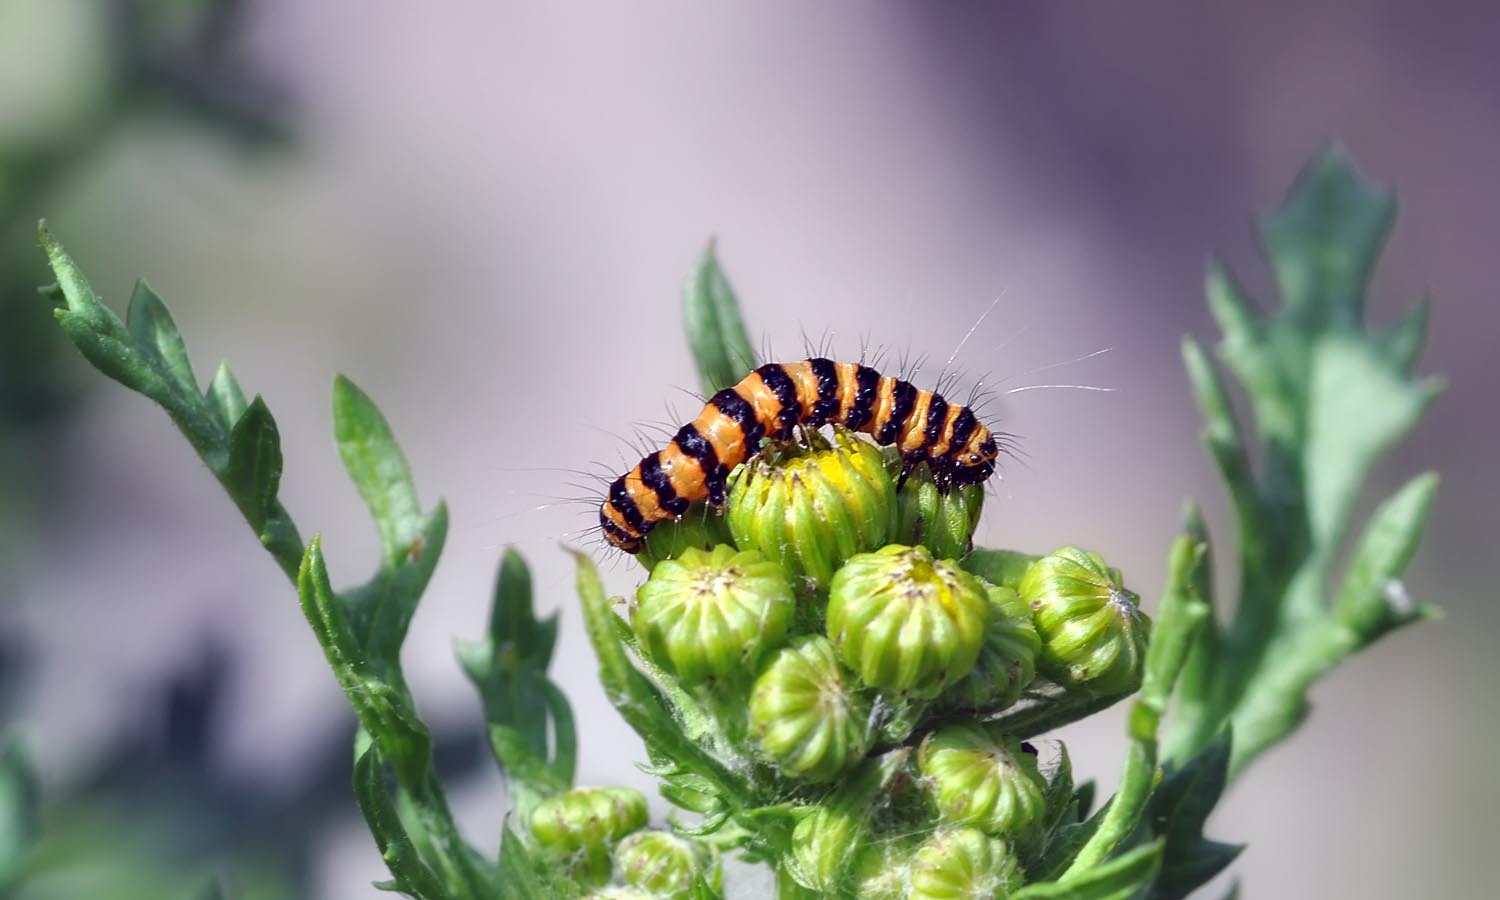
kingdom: Animalia
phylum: Arthropoda
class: Insecta
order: Lepidoptera
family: Erebidae
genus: Tyria
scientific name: Tyria jacobaeae
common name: Cinnabar
